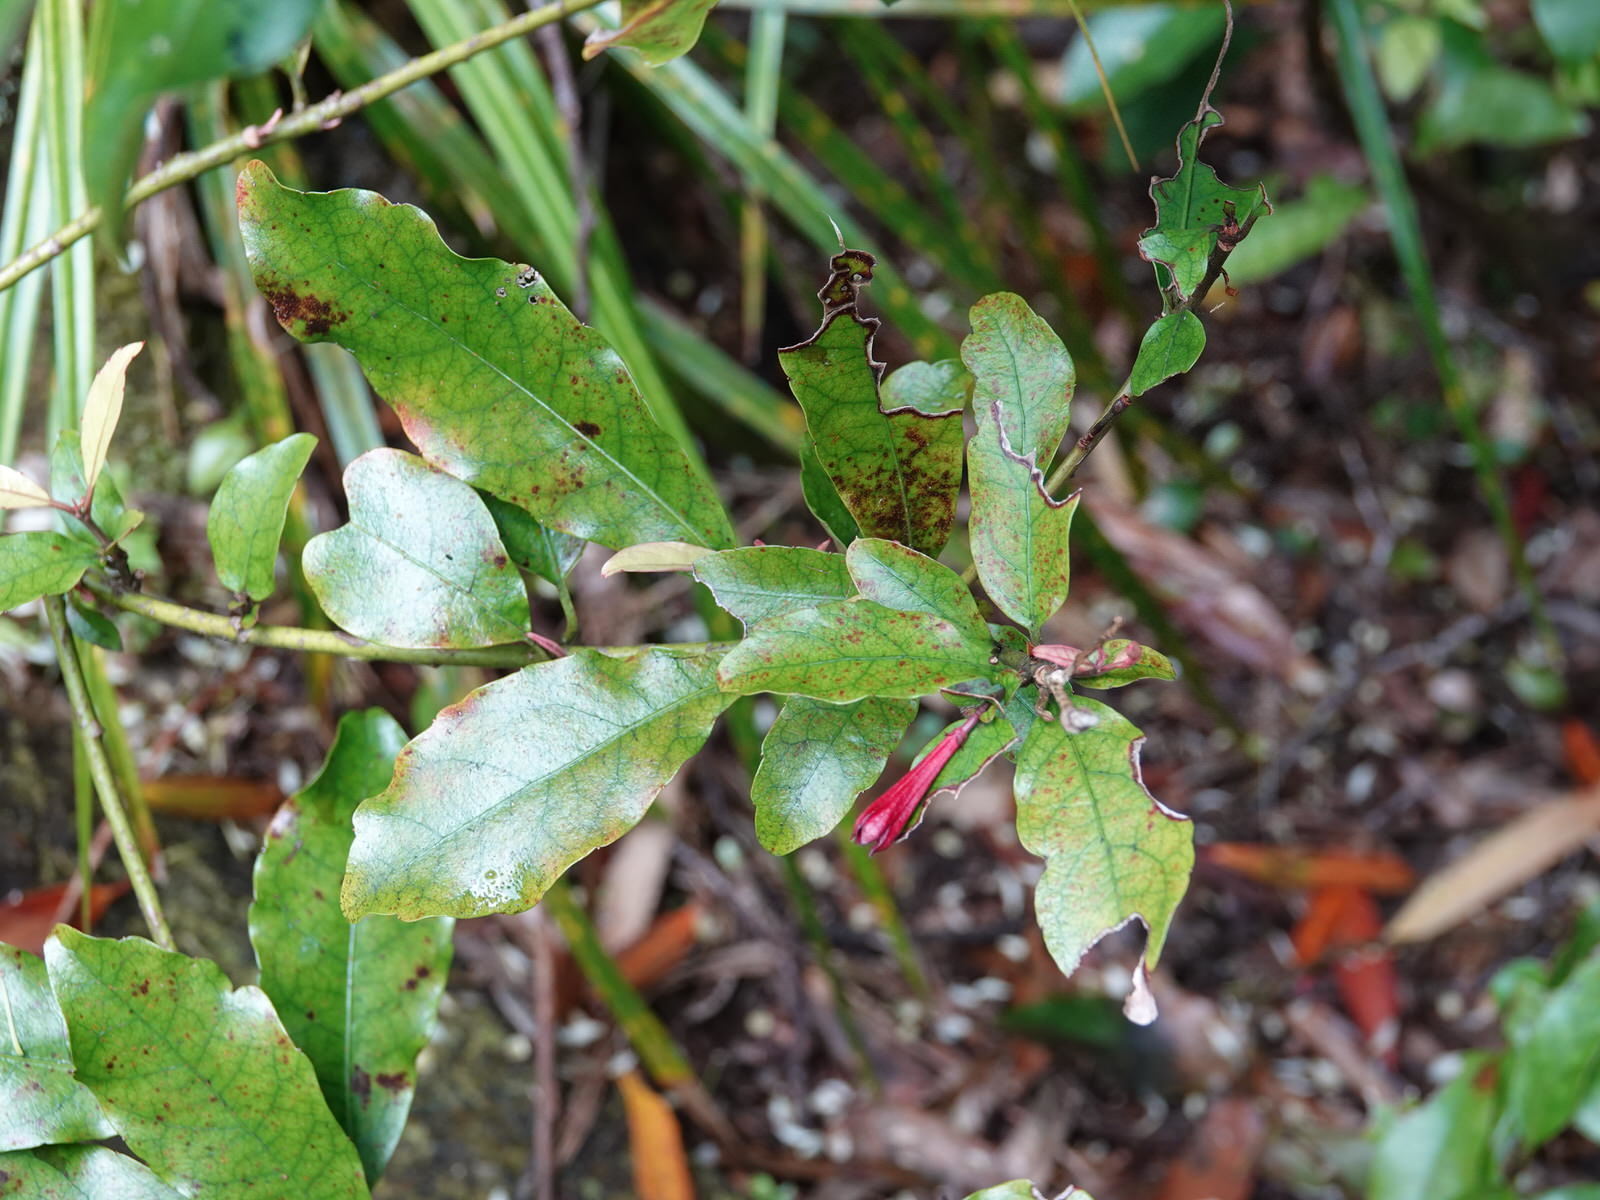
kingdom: Plantae
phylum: Tracheophyta
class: Magnoliopsida
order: Asterales
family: Alseuosmiaceae
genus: Alseuosmia
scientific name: Alseuosmia macrophylla
